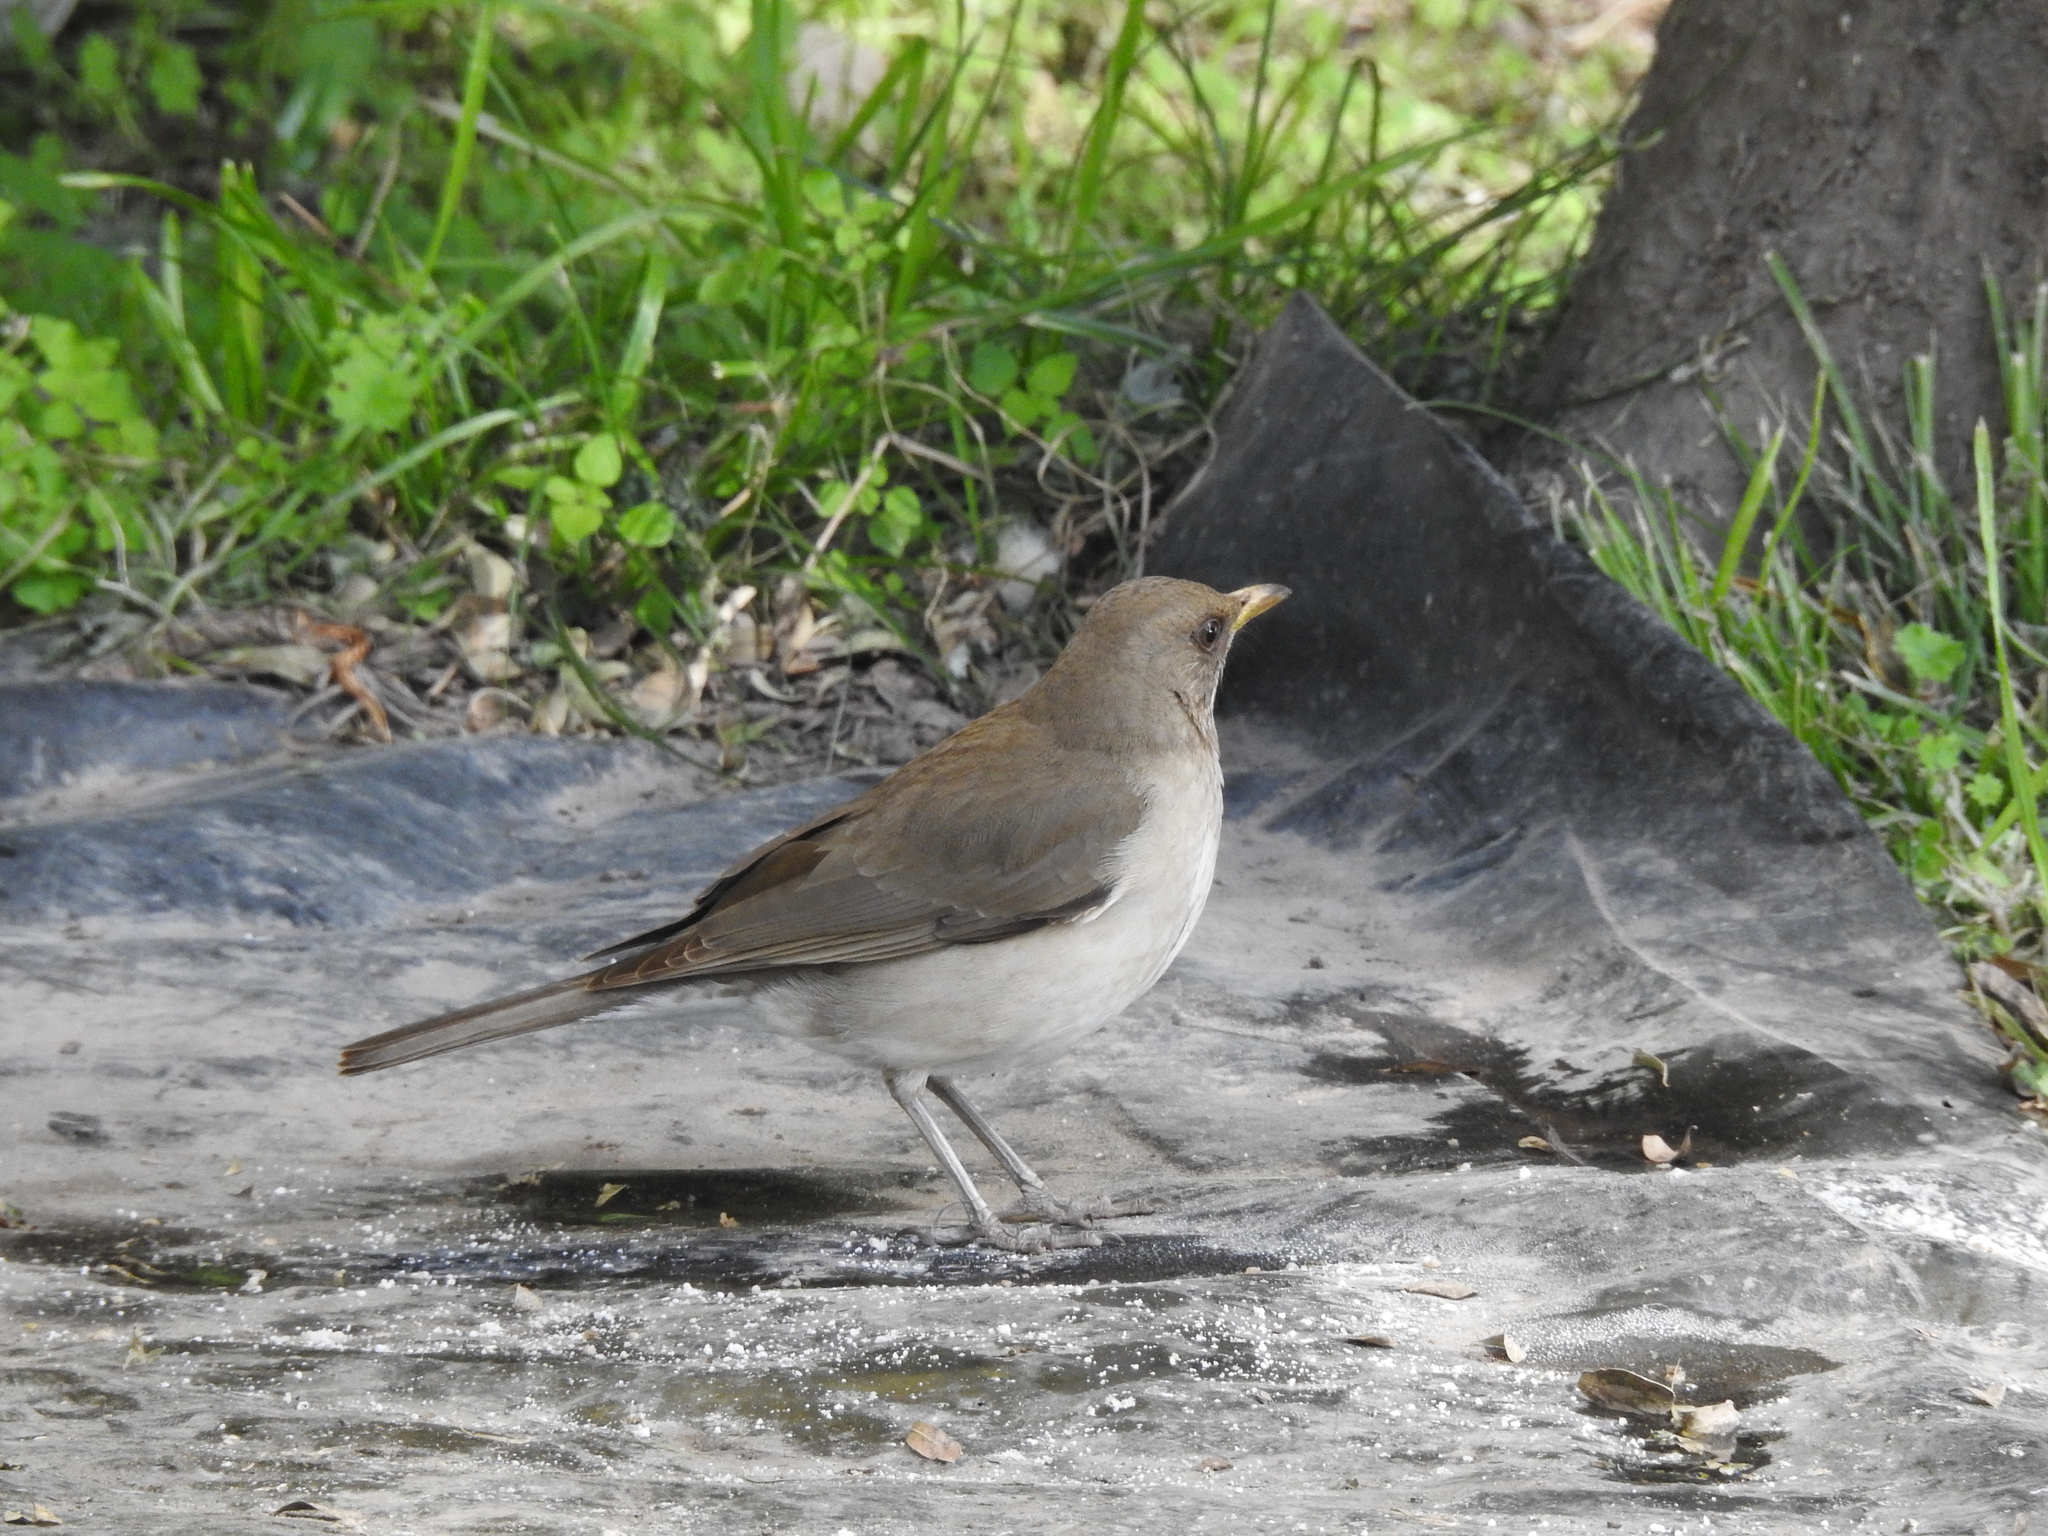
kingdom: Animalia
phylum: Chordata
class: Aves
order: Passeriformes
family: Turdidae
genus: Turdus
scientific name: Turdus amaurochalinus
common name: Creamy-bellied thrush
